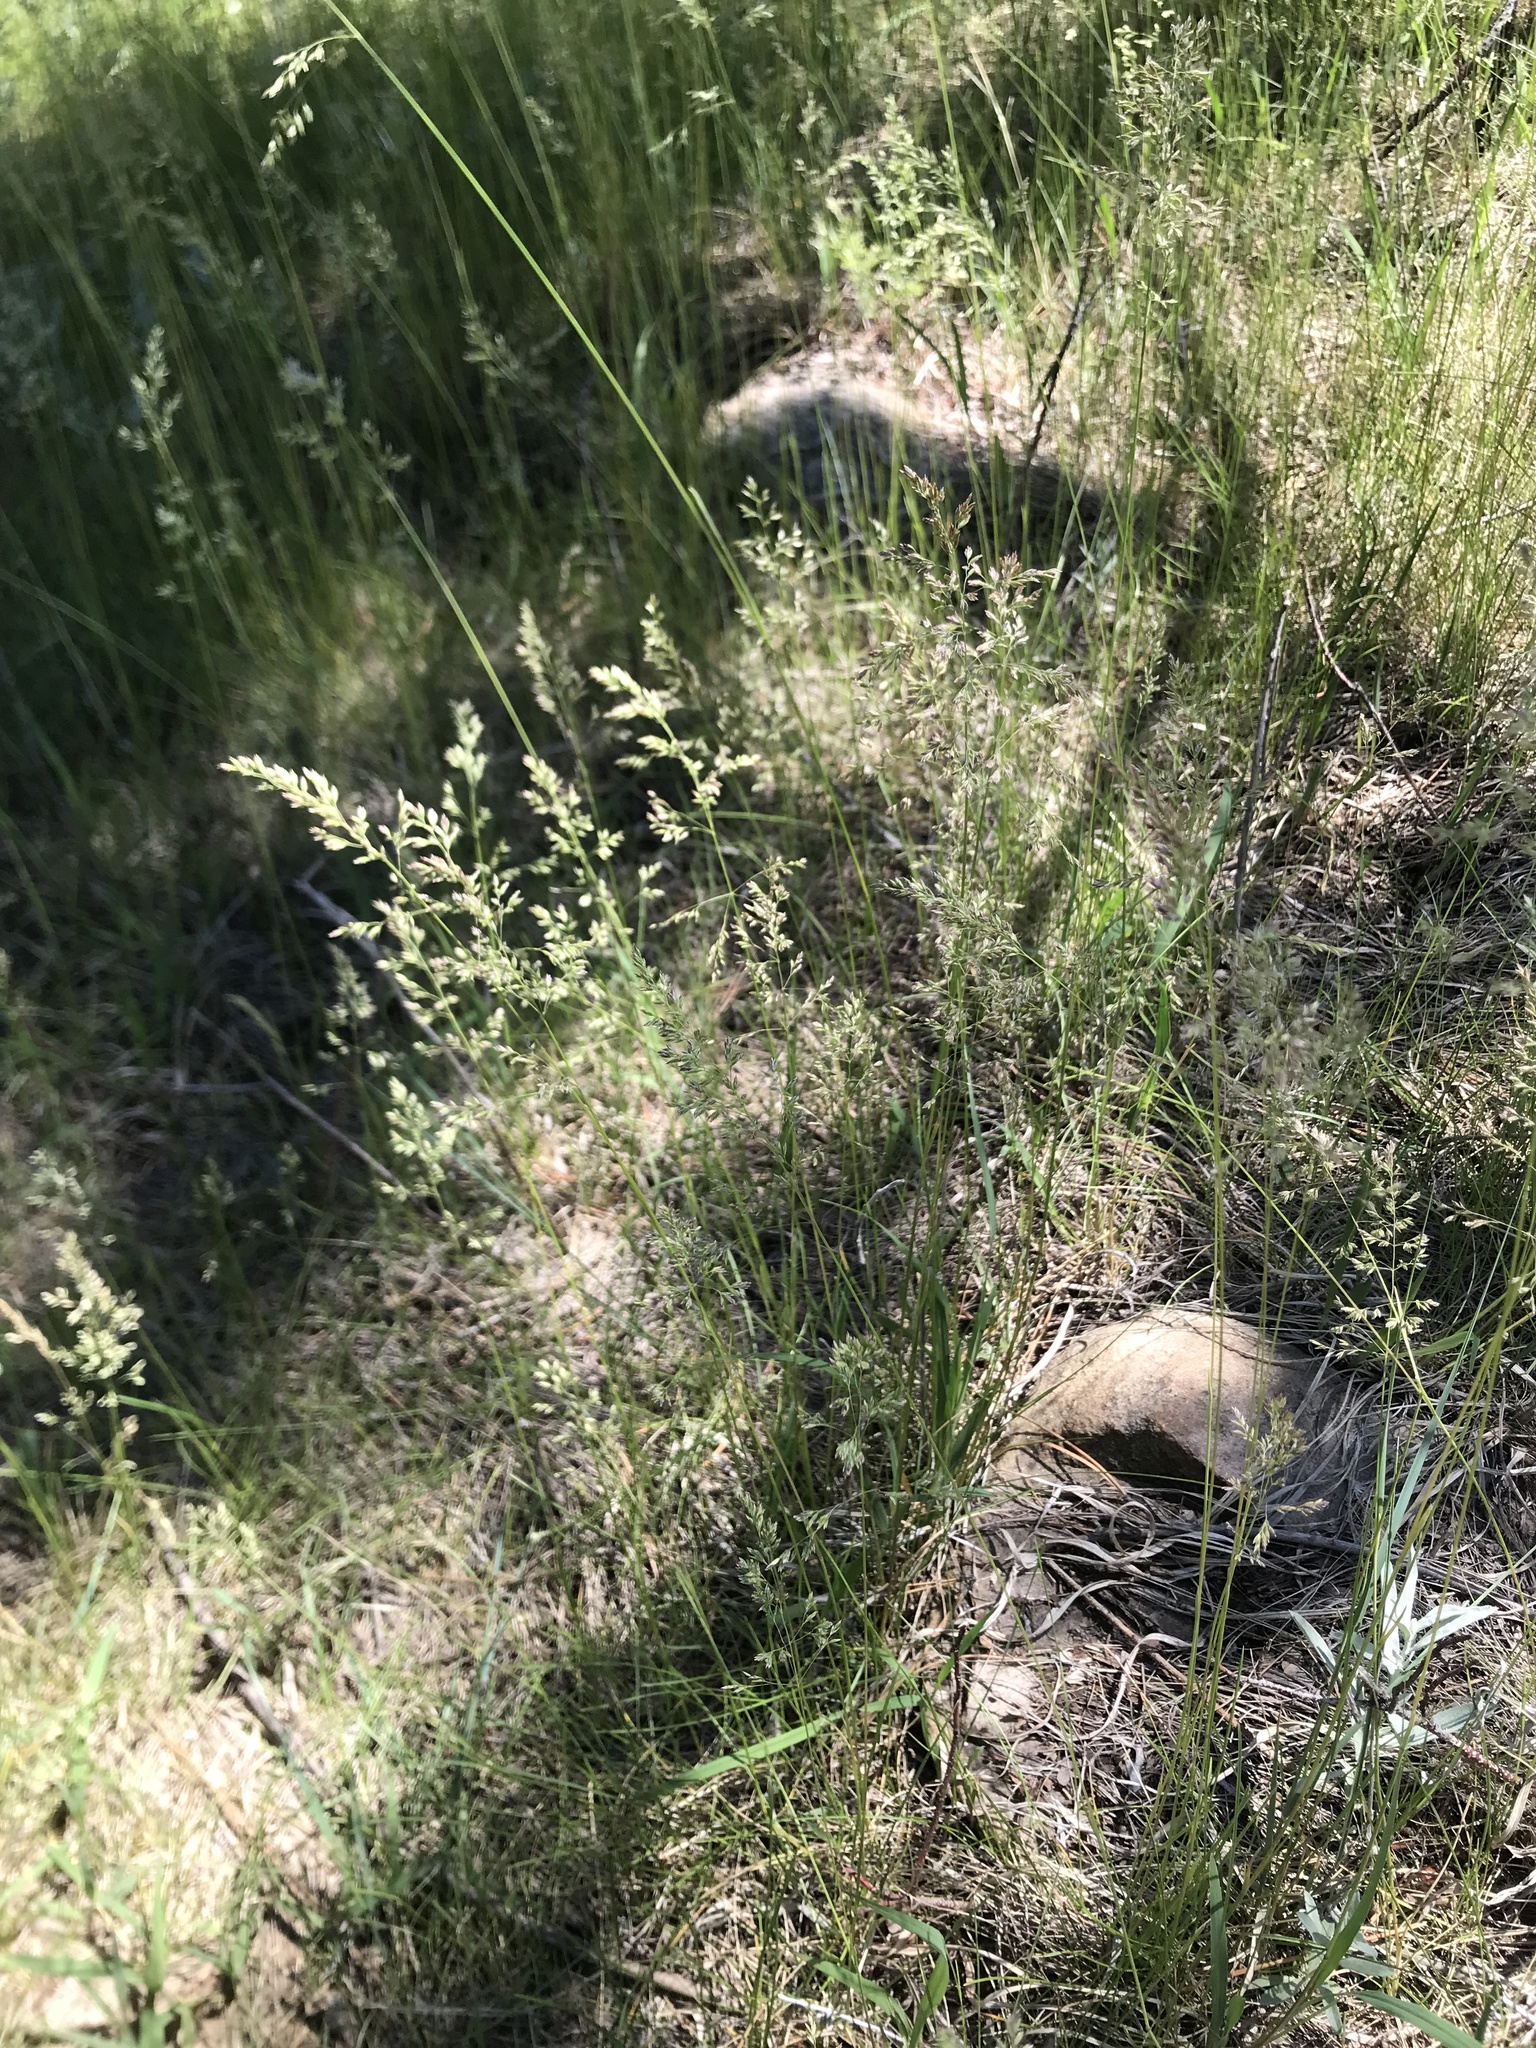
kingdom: Plantae
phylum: Tracheophyta
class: Liliopsida
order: Poales
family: Poaceae
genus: Poa
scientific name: Poa pratensis
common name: Kentucky bluegrass
